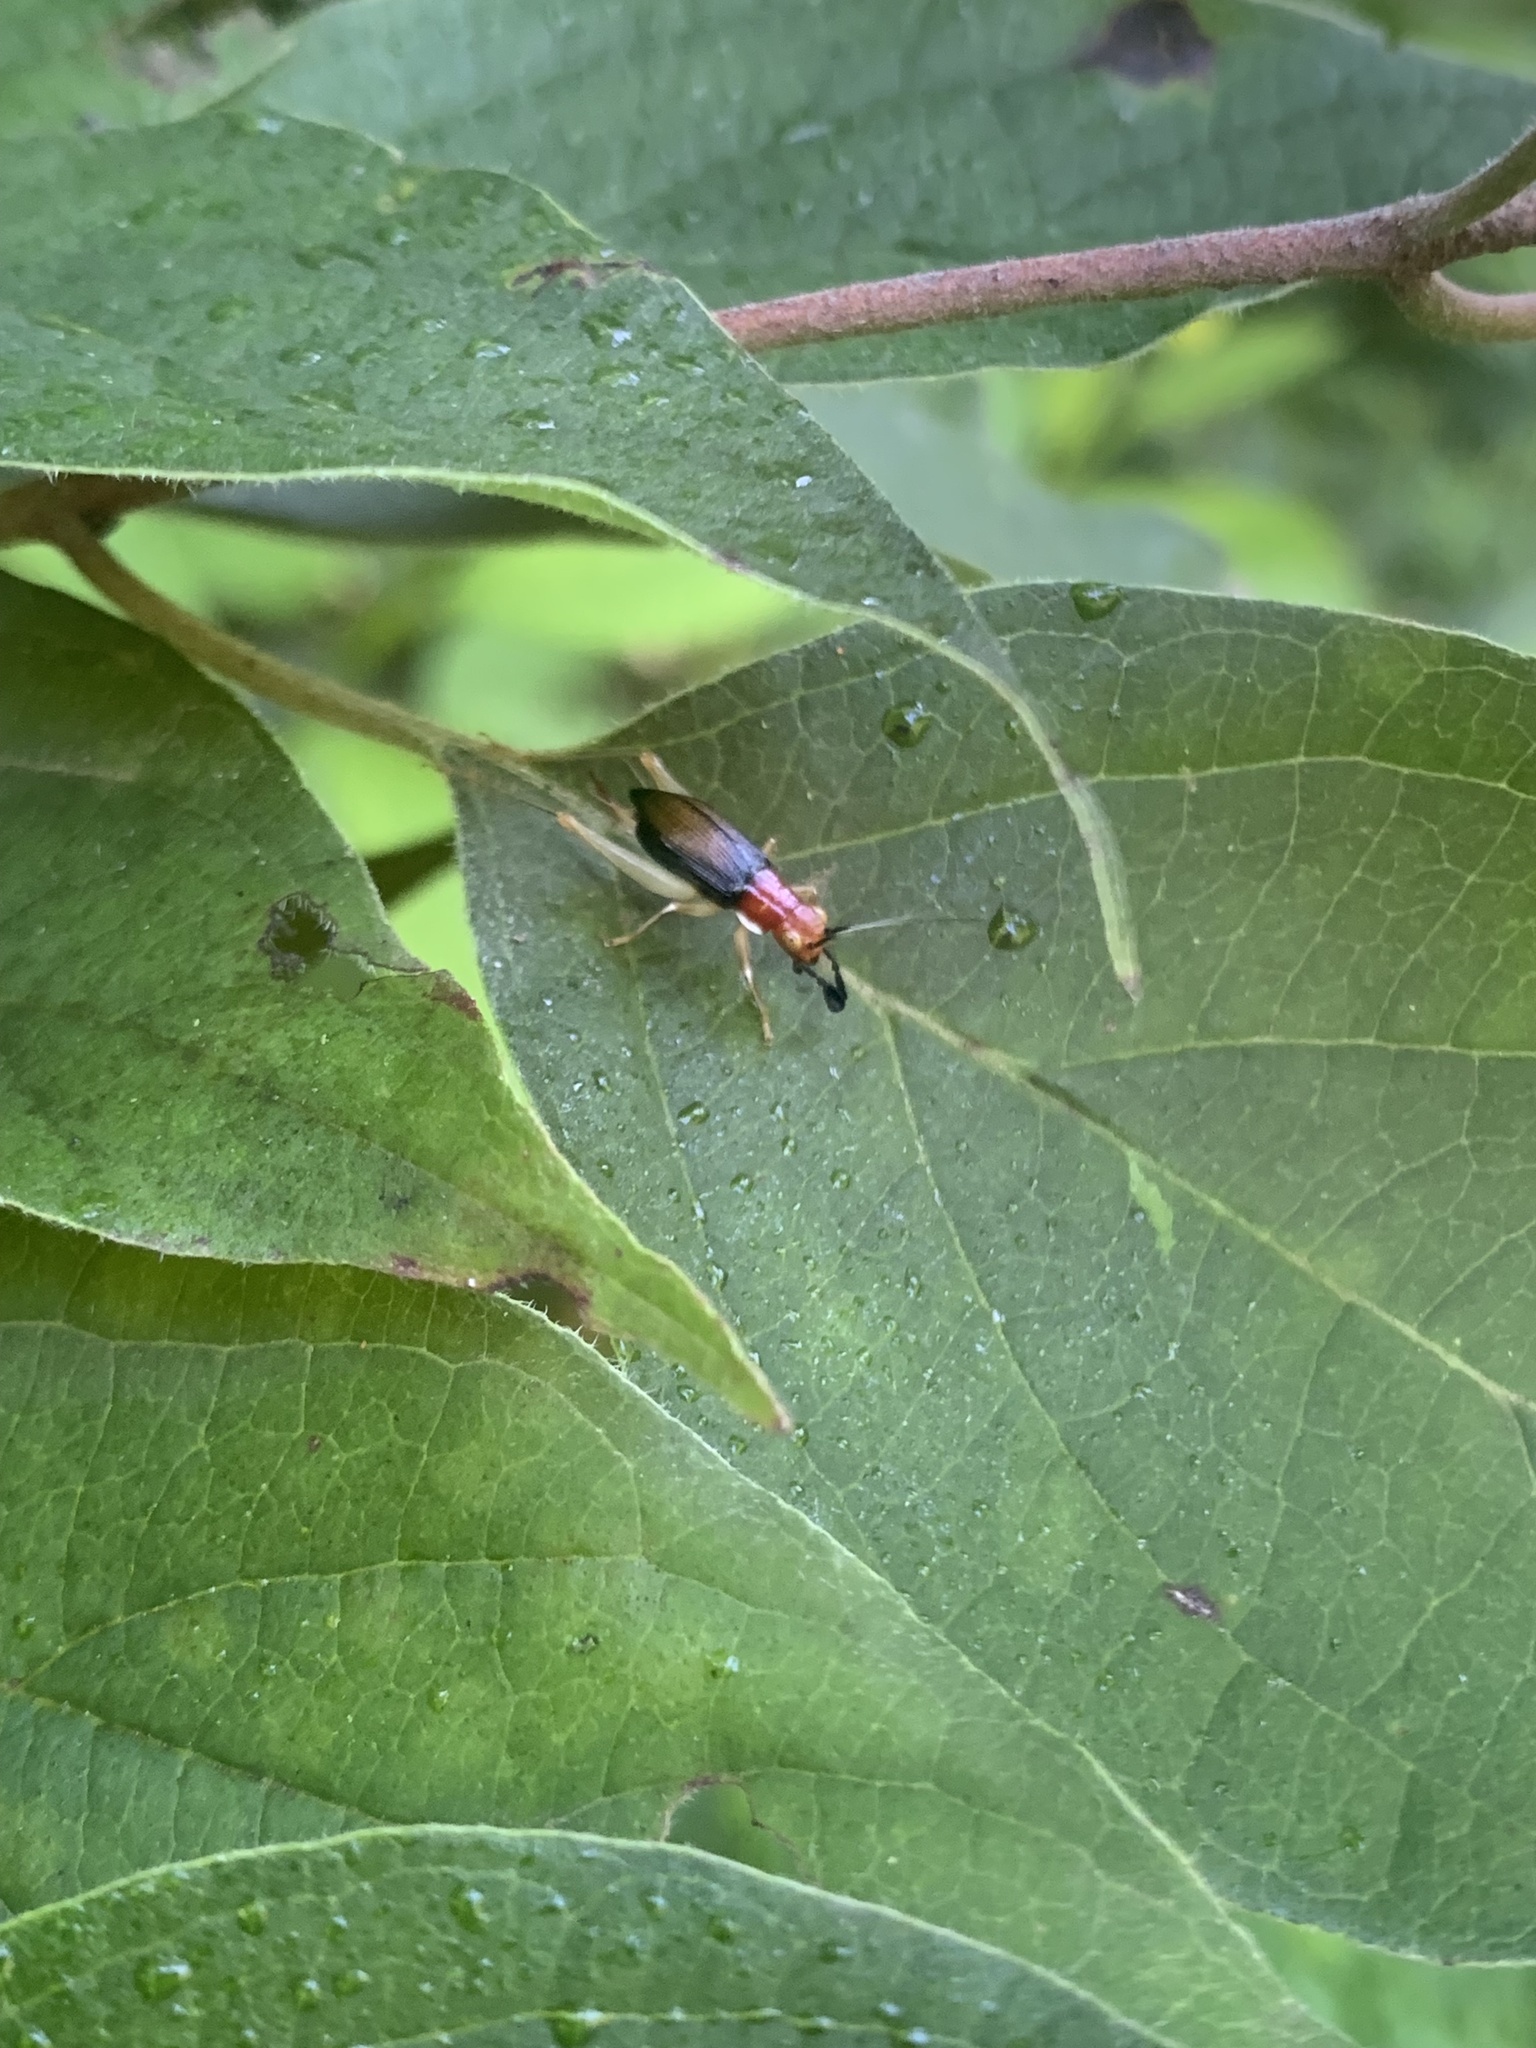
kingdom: Animalia
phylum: Arthropoda
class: Insecta
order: Orthoptera
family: Trigonidiidae
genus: Phyllopalpus
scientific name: Phyllopalpus pulchellus
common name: Handsome trig
